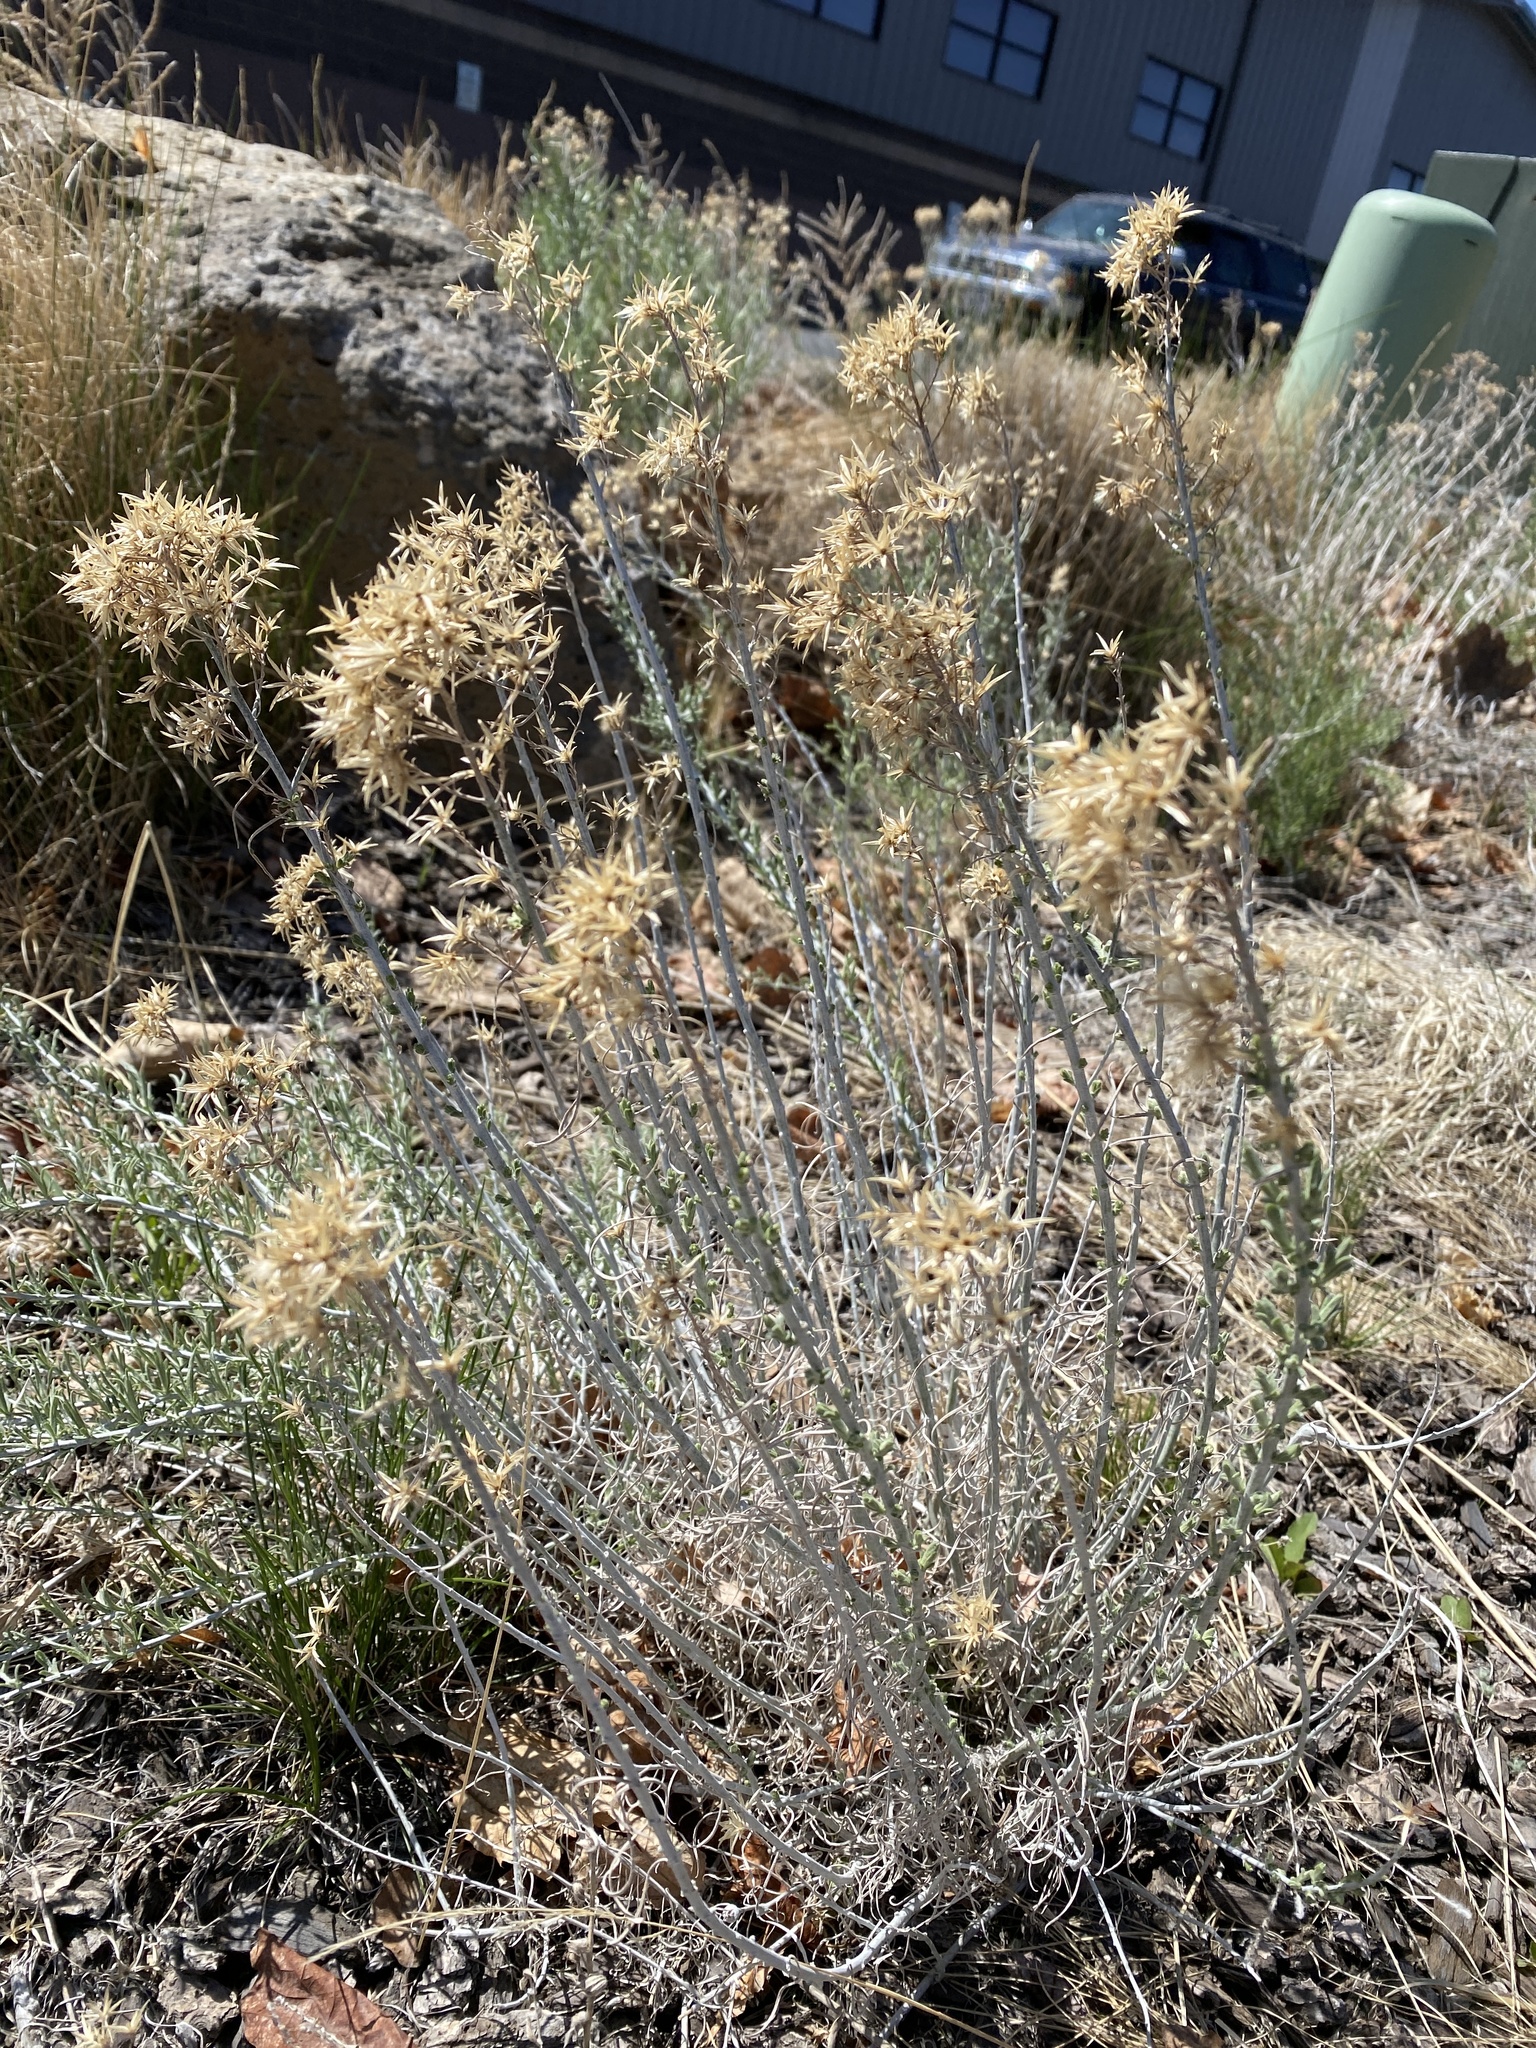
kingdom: Plantae
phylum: Tracheophyta
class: Magnoliopsida
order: Asterales
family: Asteraceae
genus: Ericameria
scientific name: Ericameria nauseosa
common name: Rubber rabbitbrush
